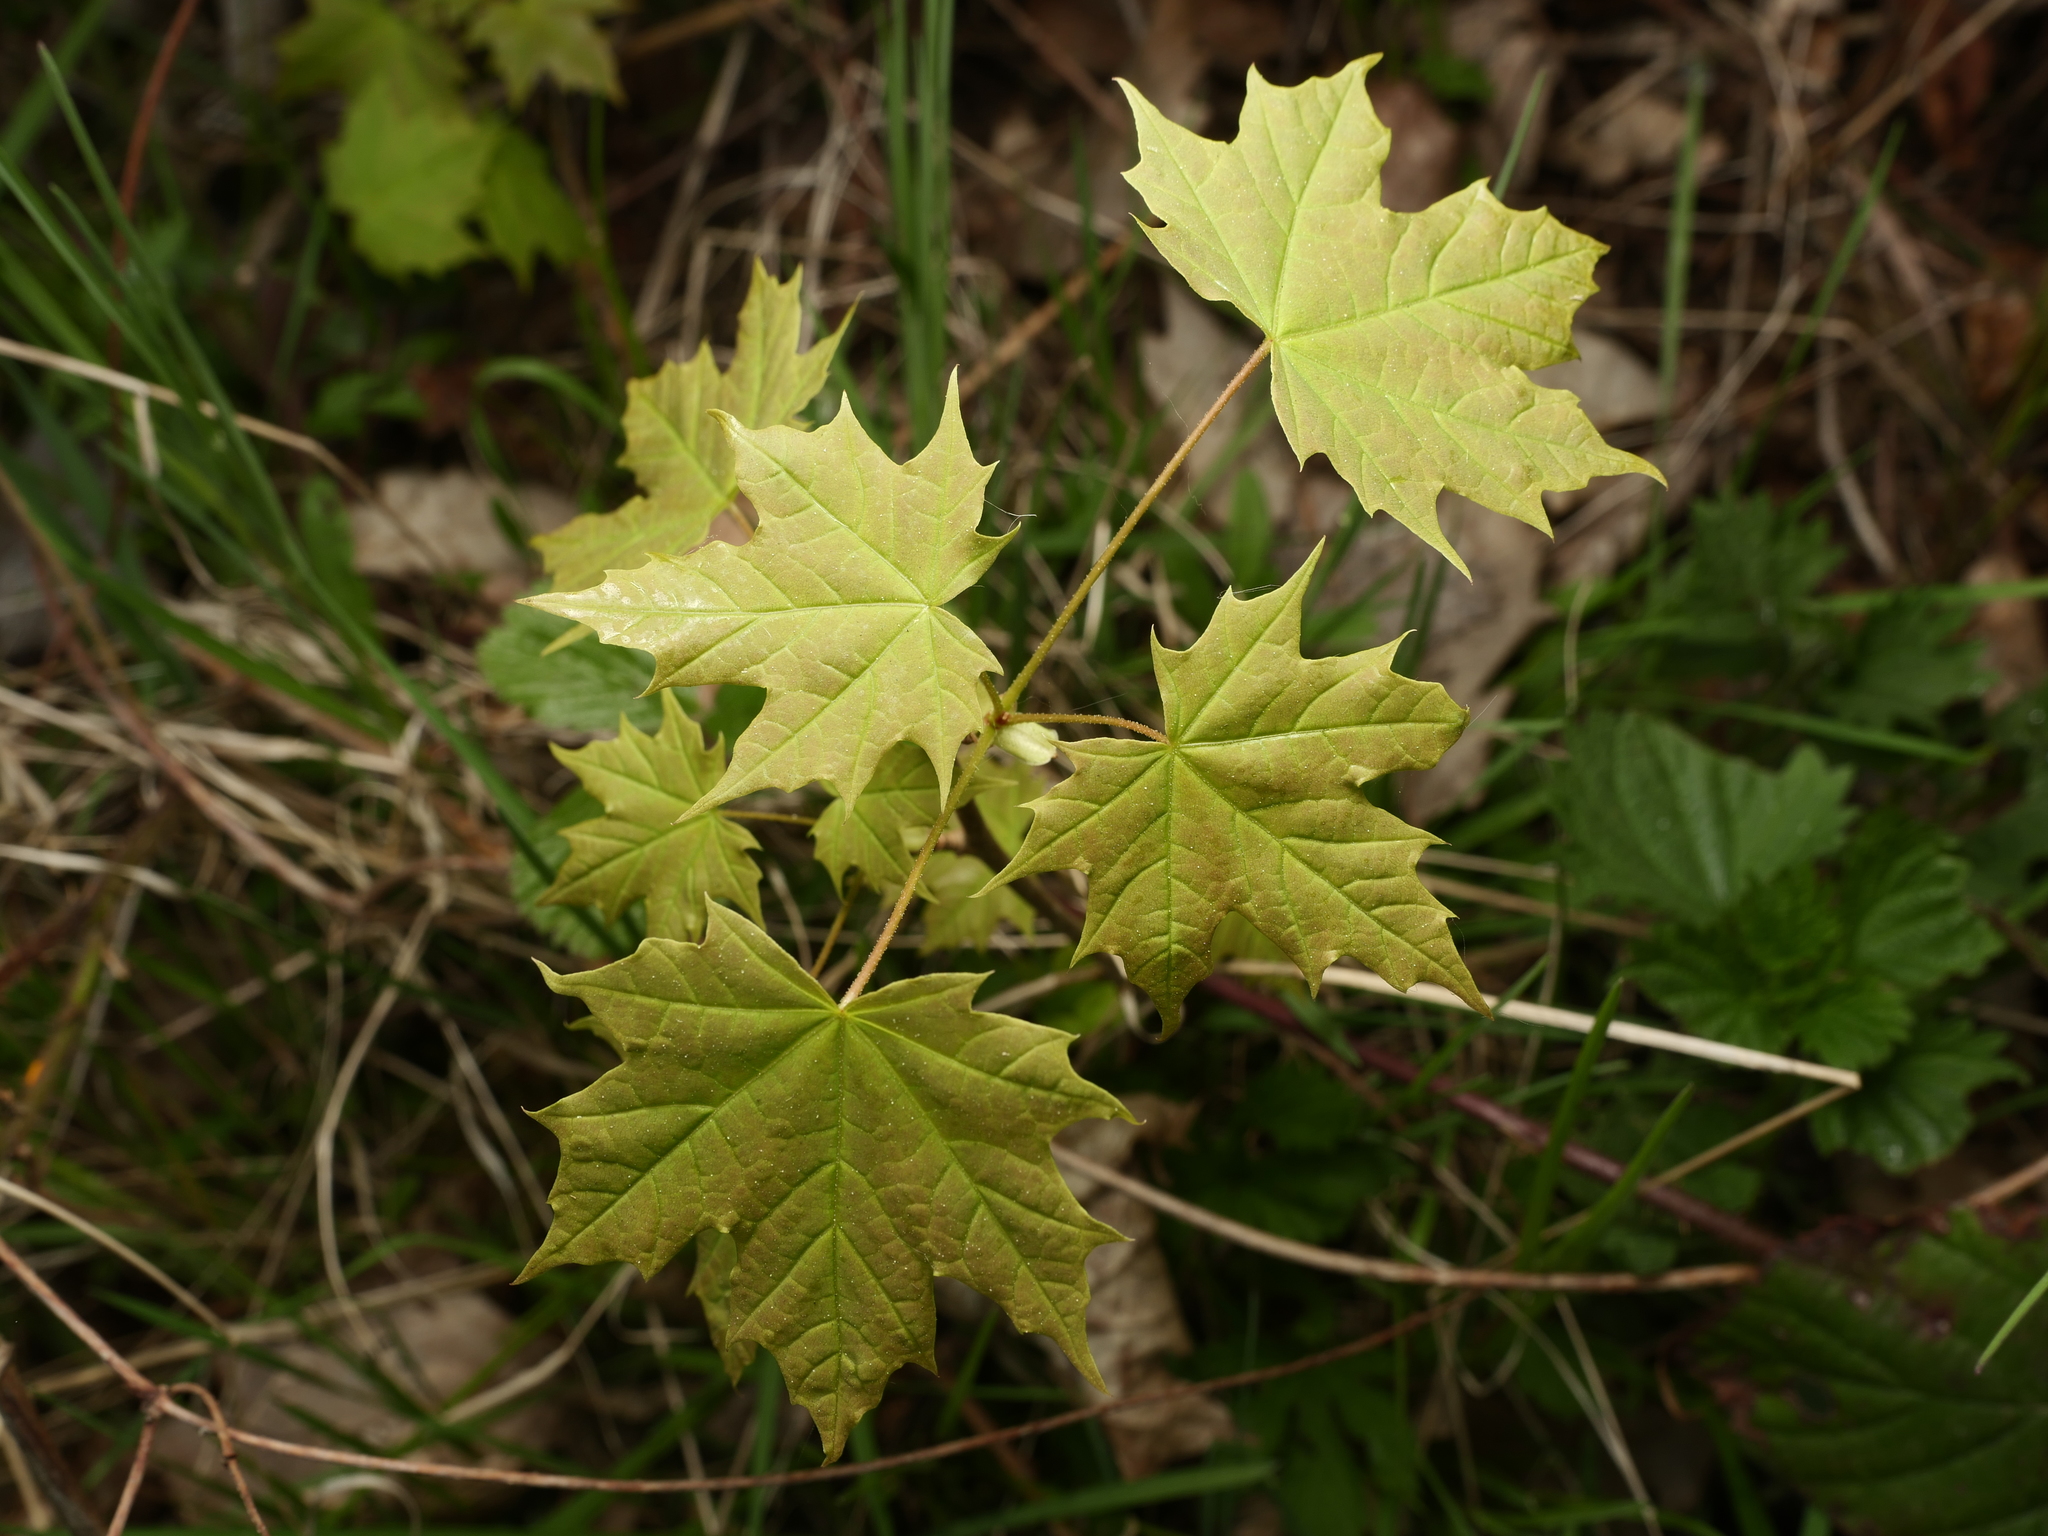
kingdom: Plantae
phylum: Tracheophyta
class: Magnoliopsida
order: Sapindales
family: Sapindaceae
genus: Acer
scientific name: Acer platanoides
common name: Norway maple
